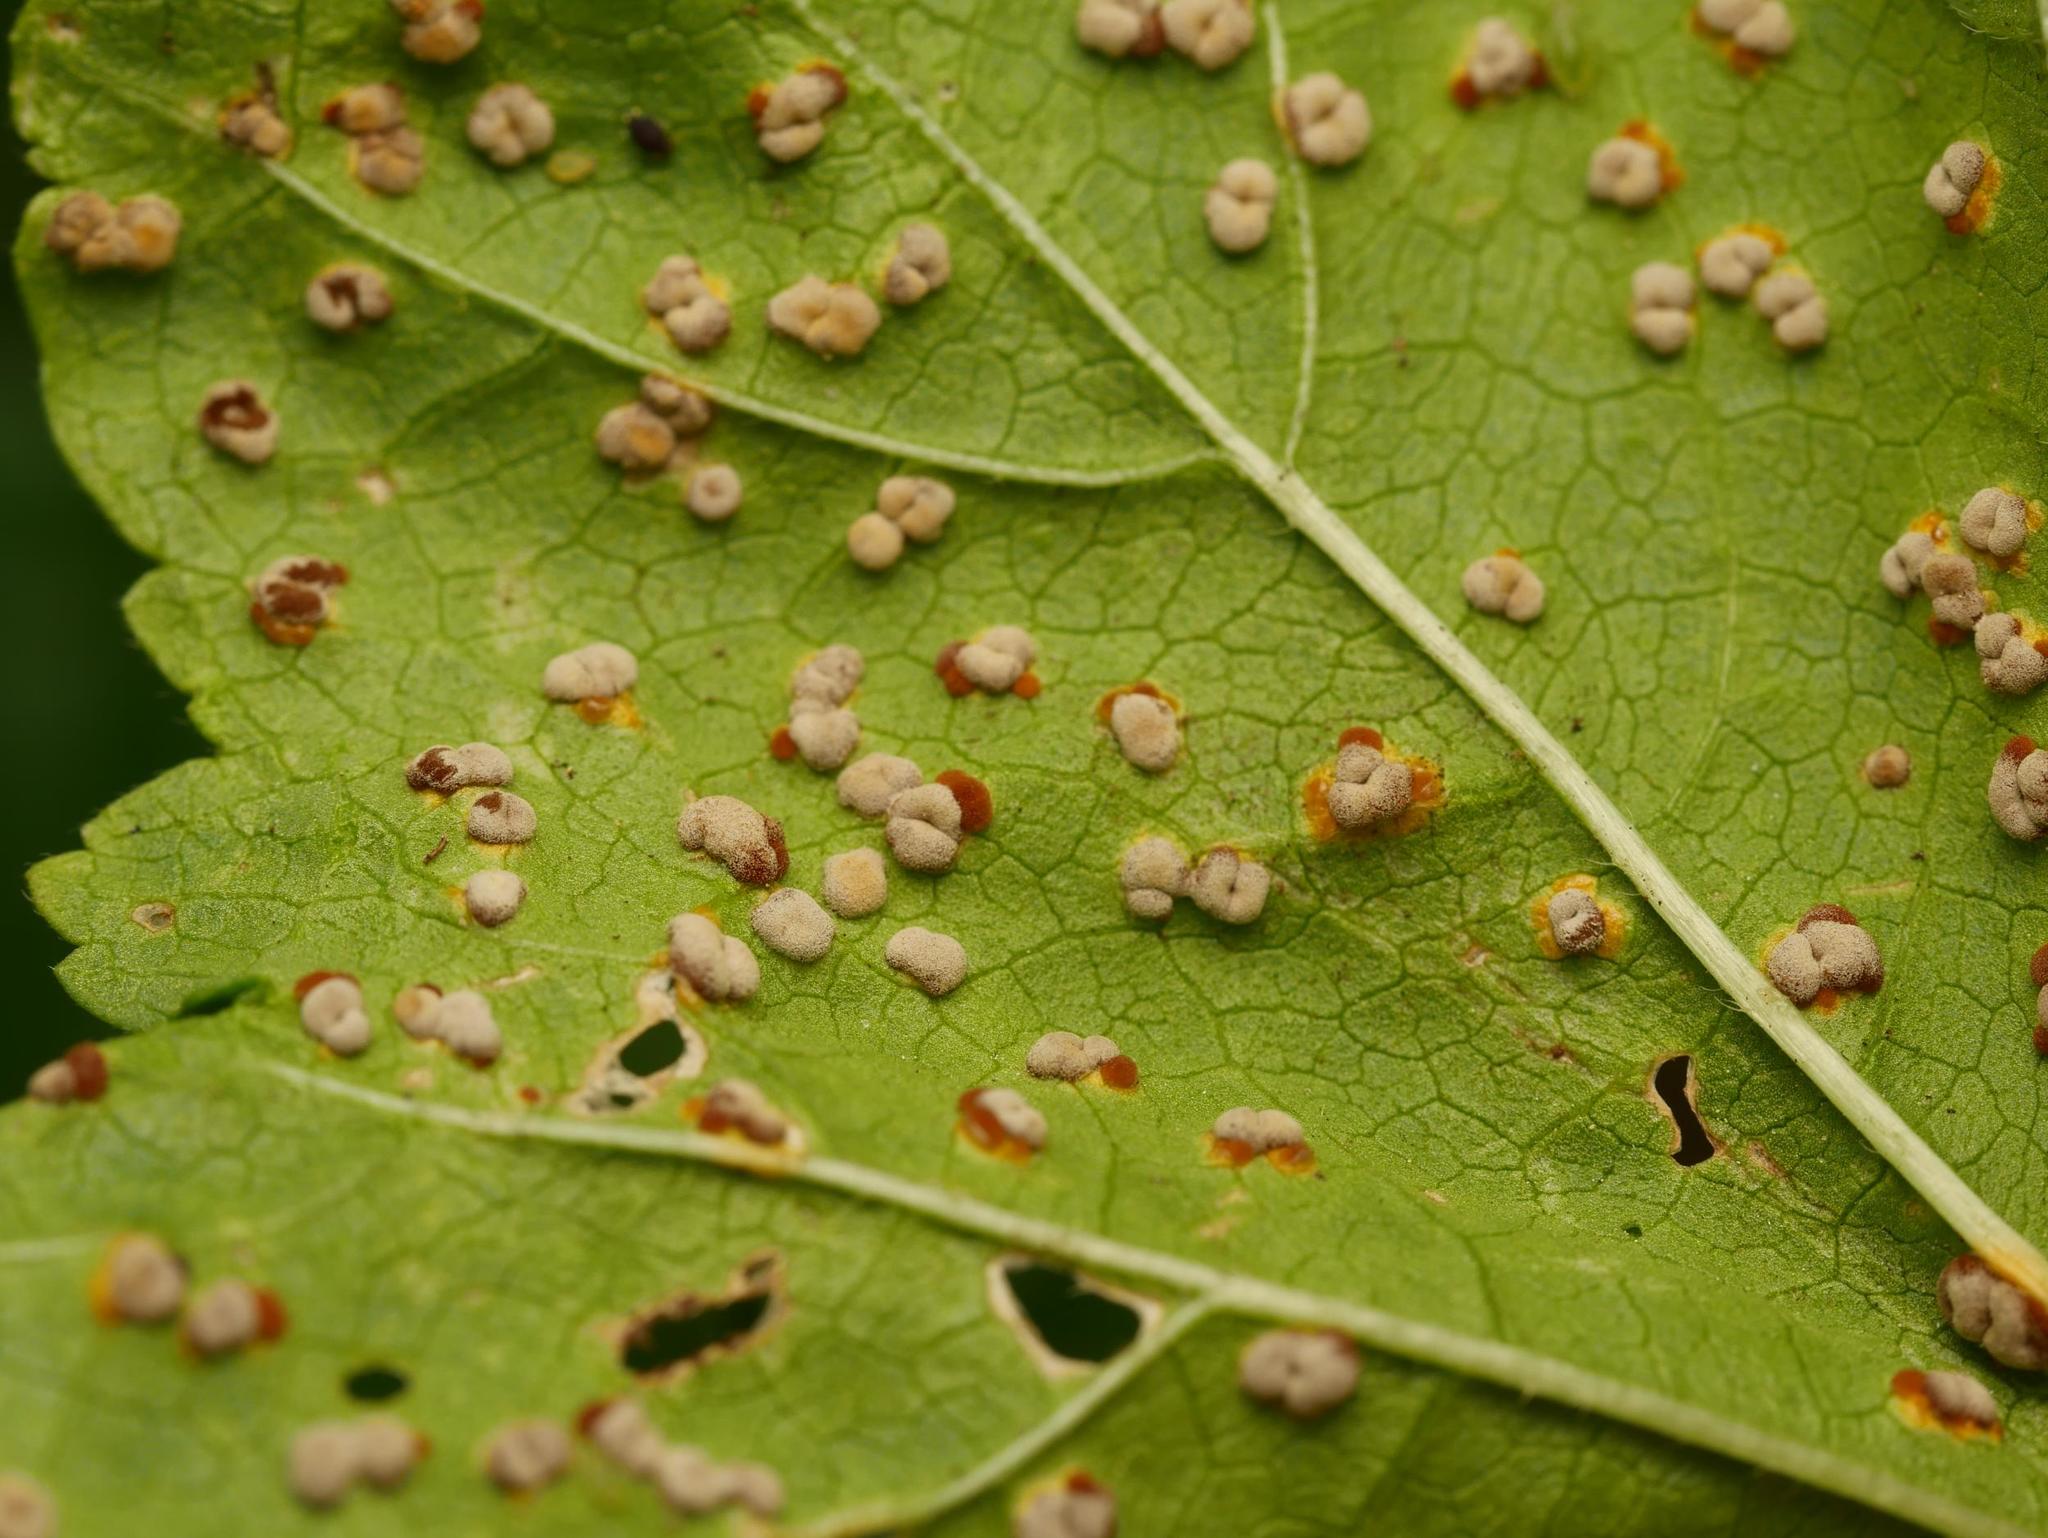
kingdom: Fungi
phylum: Basidiomycota
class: Pucciniomycetes
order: Pucciniales
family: Pucciniaceae
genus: Puccinia
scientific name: Puccinia malvacearum
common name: Hollyhock rust
